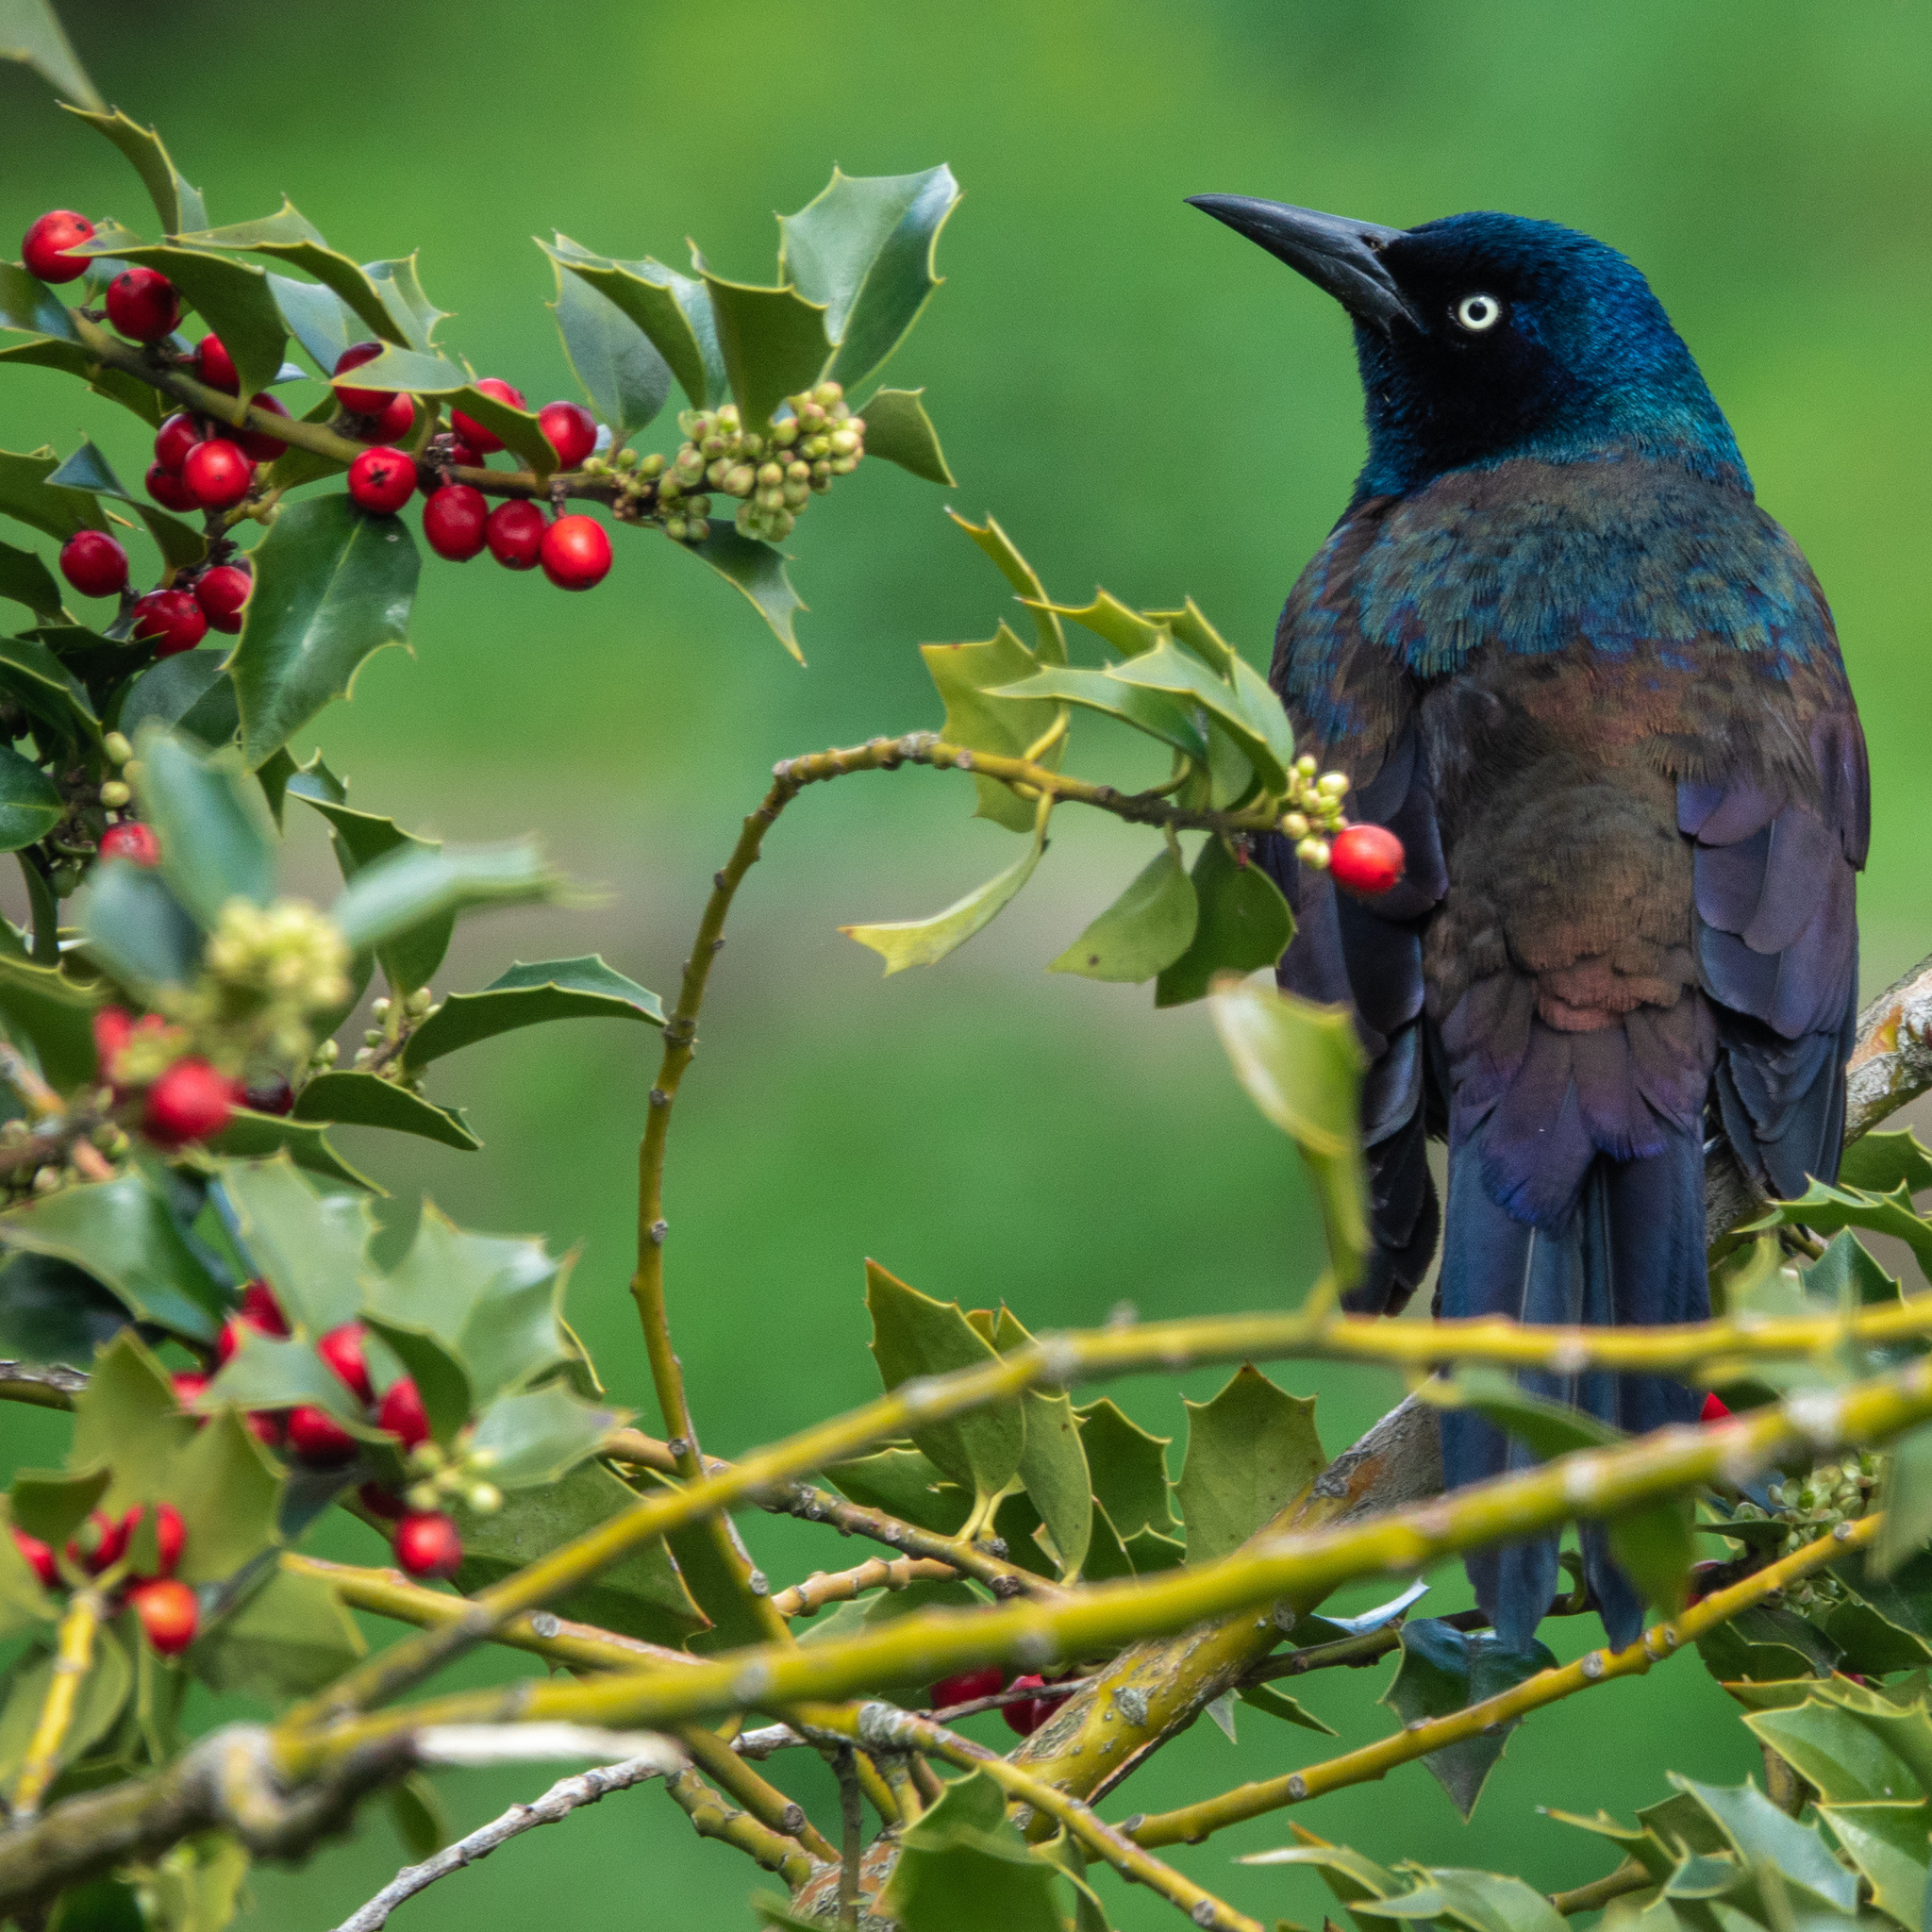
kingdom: Animalia
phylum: Chordata
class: Aves
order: Passeriformes
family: Icteridae
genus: Quiscalus
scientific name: Quiscalus quiscula
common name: Common grackle
